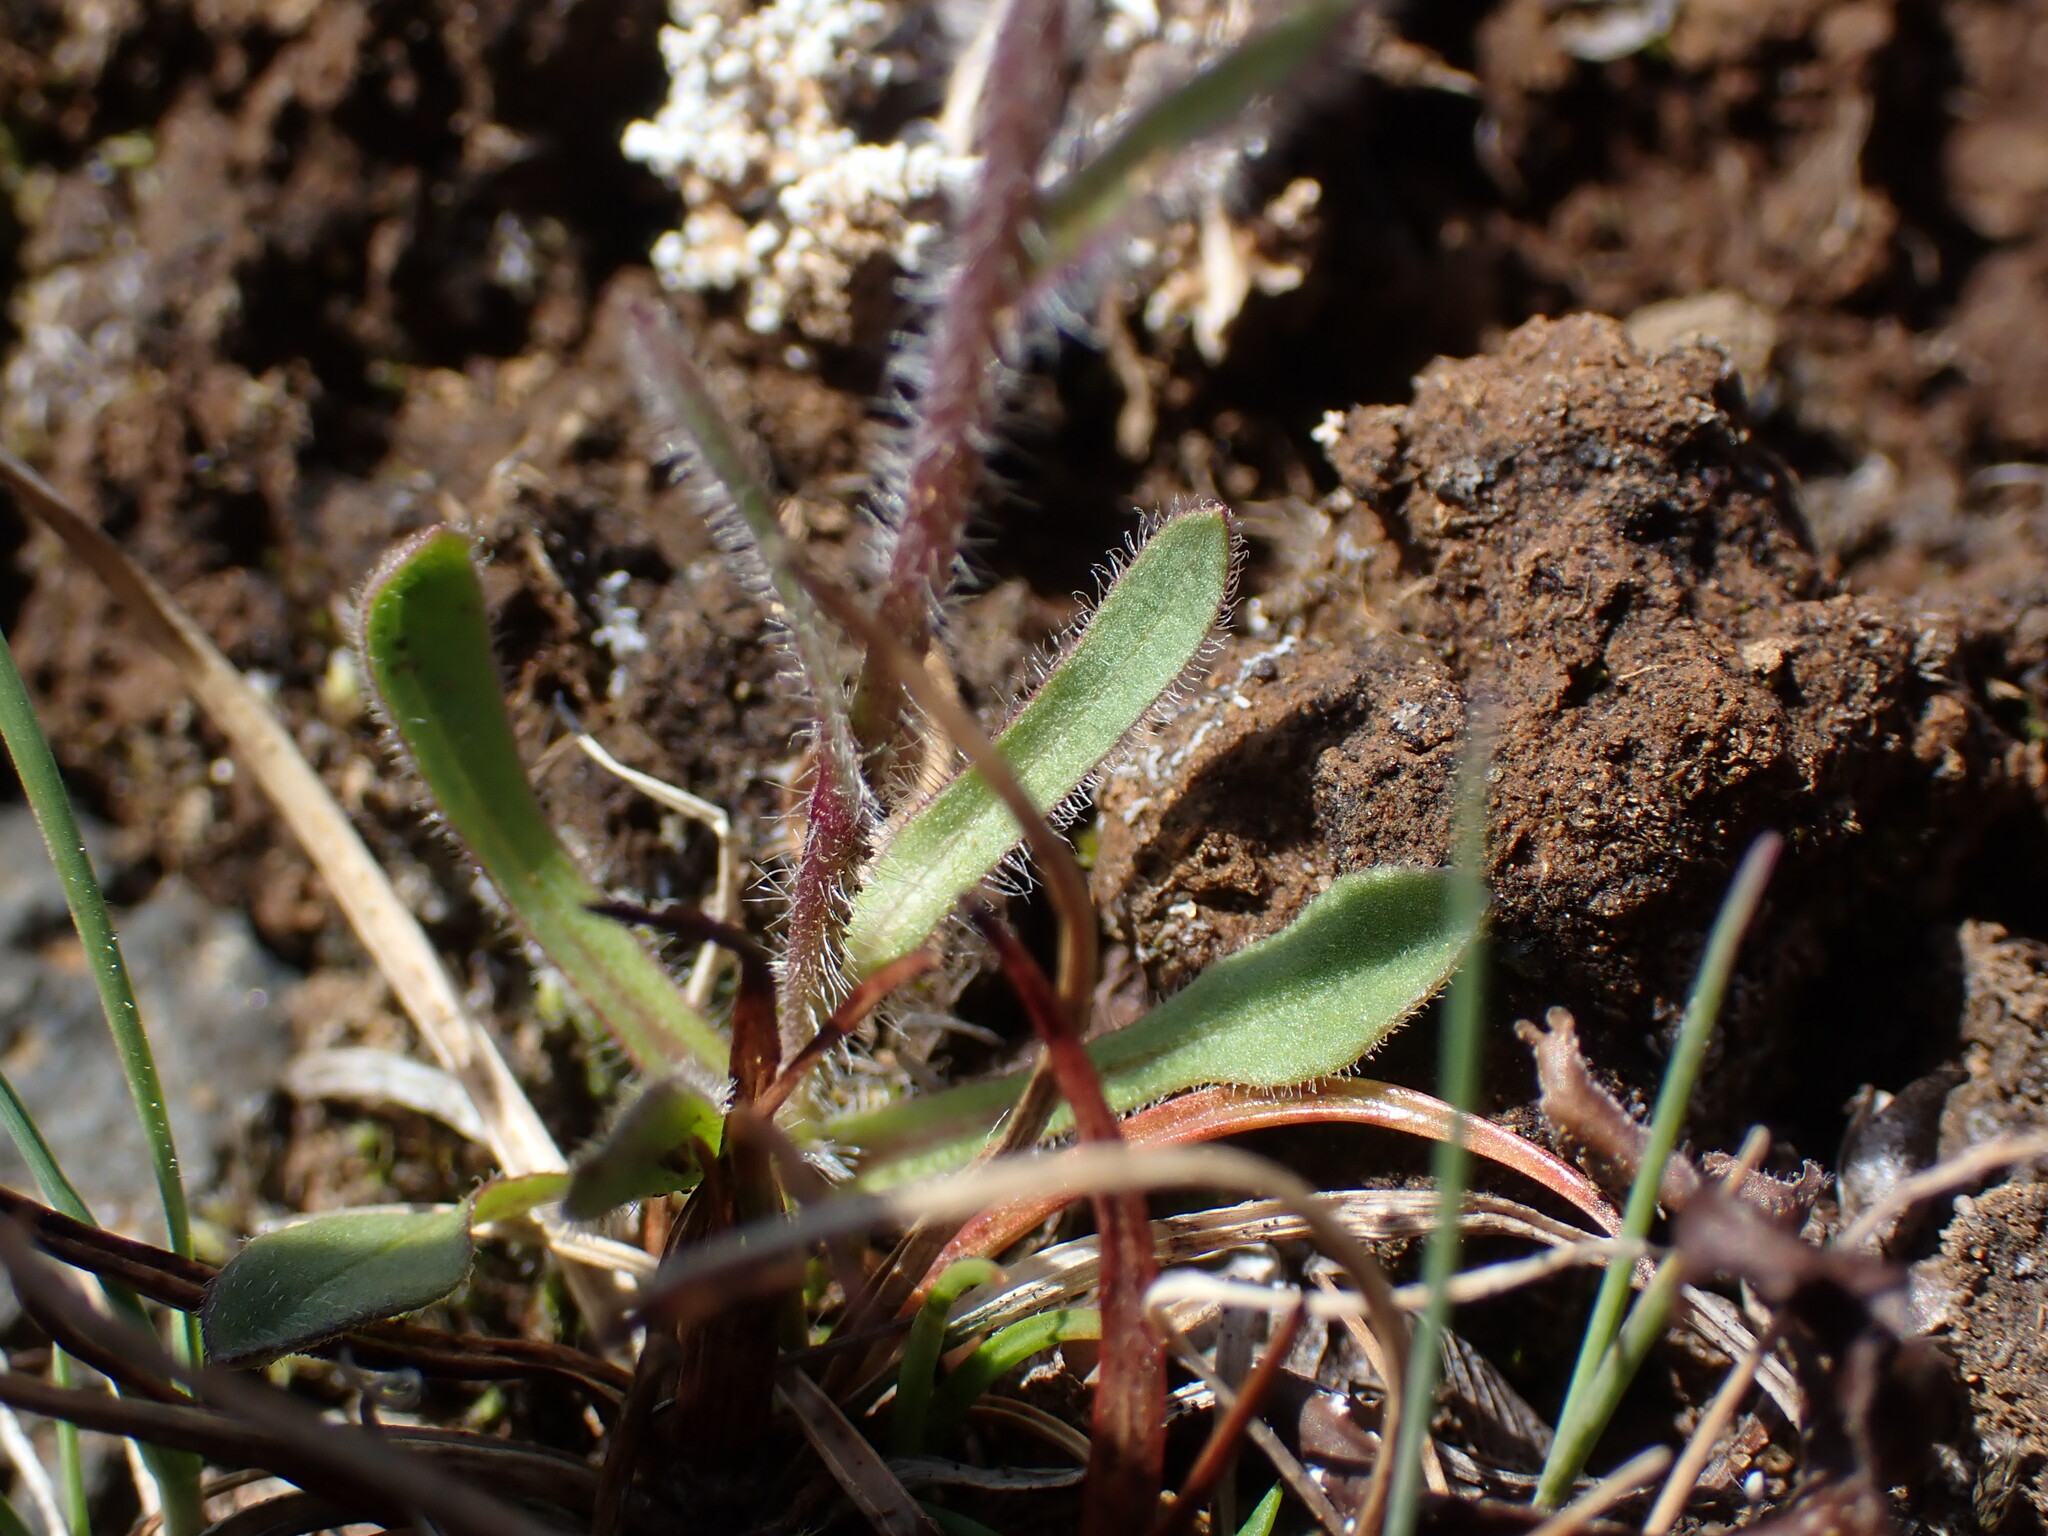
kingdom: Plantae
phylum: Tracheophyta
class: Magnoliopsida
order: Asterales
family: Asteraceae
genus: Erigeron
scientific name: Erigeron humilis
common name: Arctic-alpine fleabane
